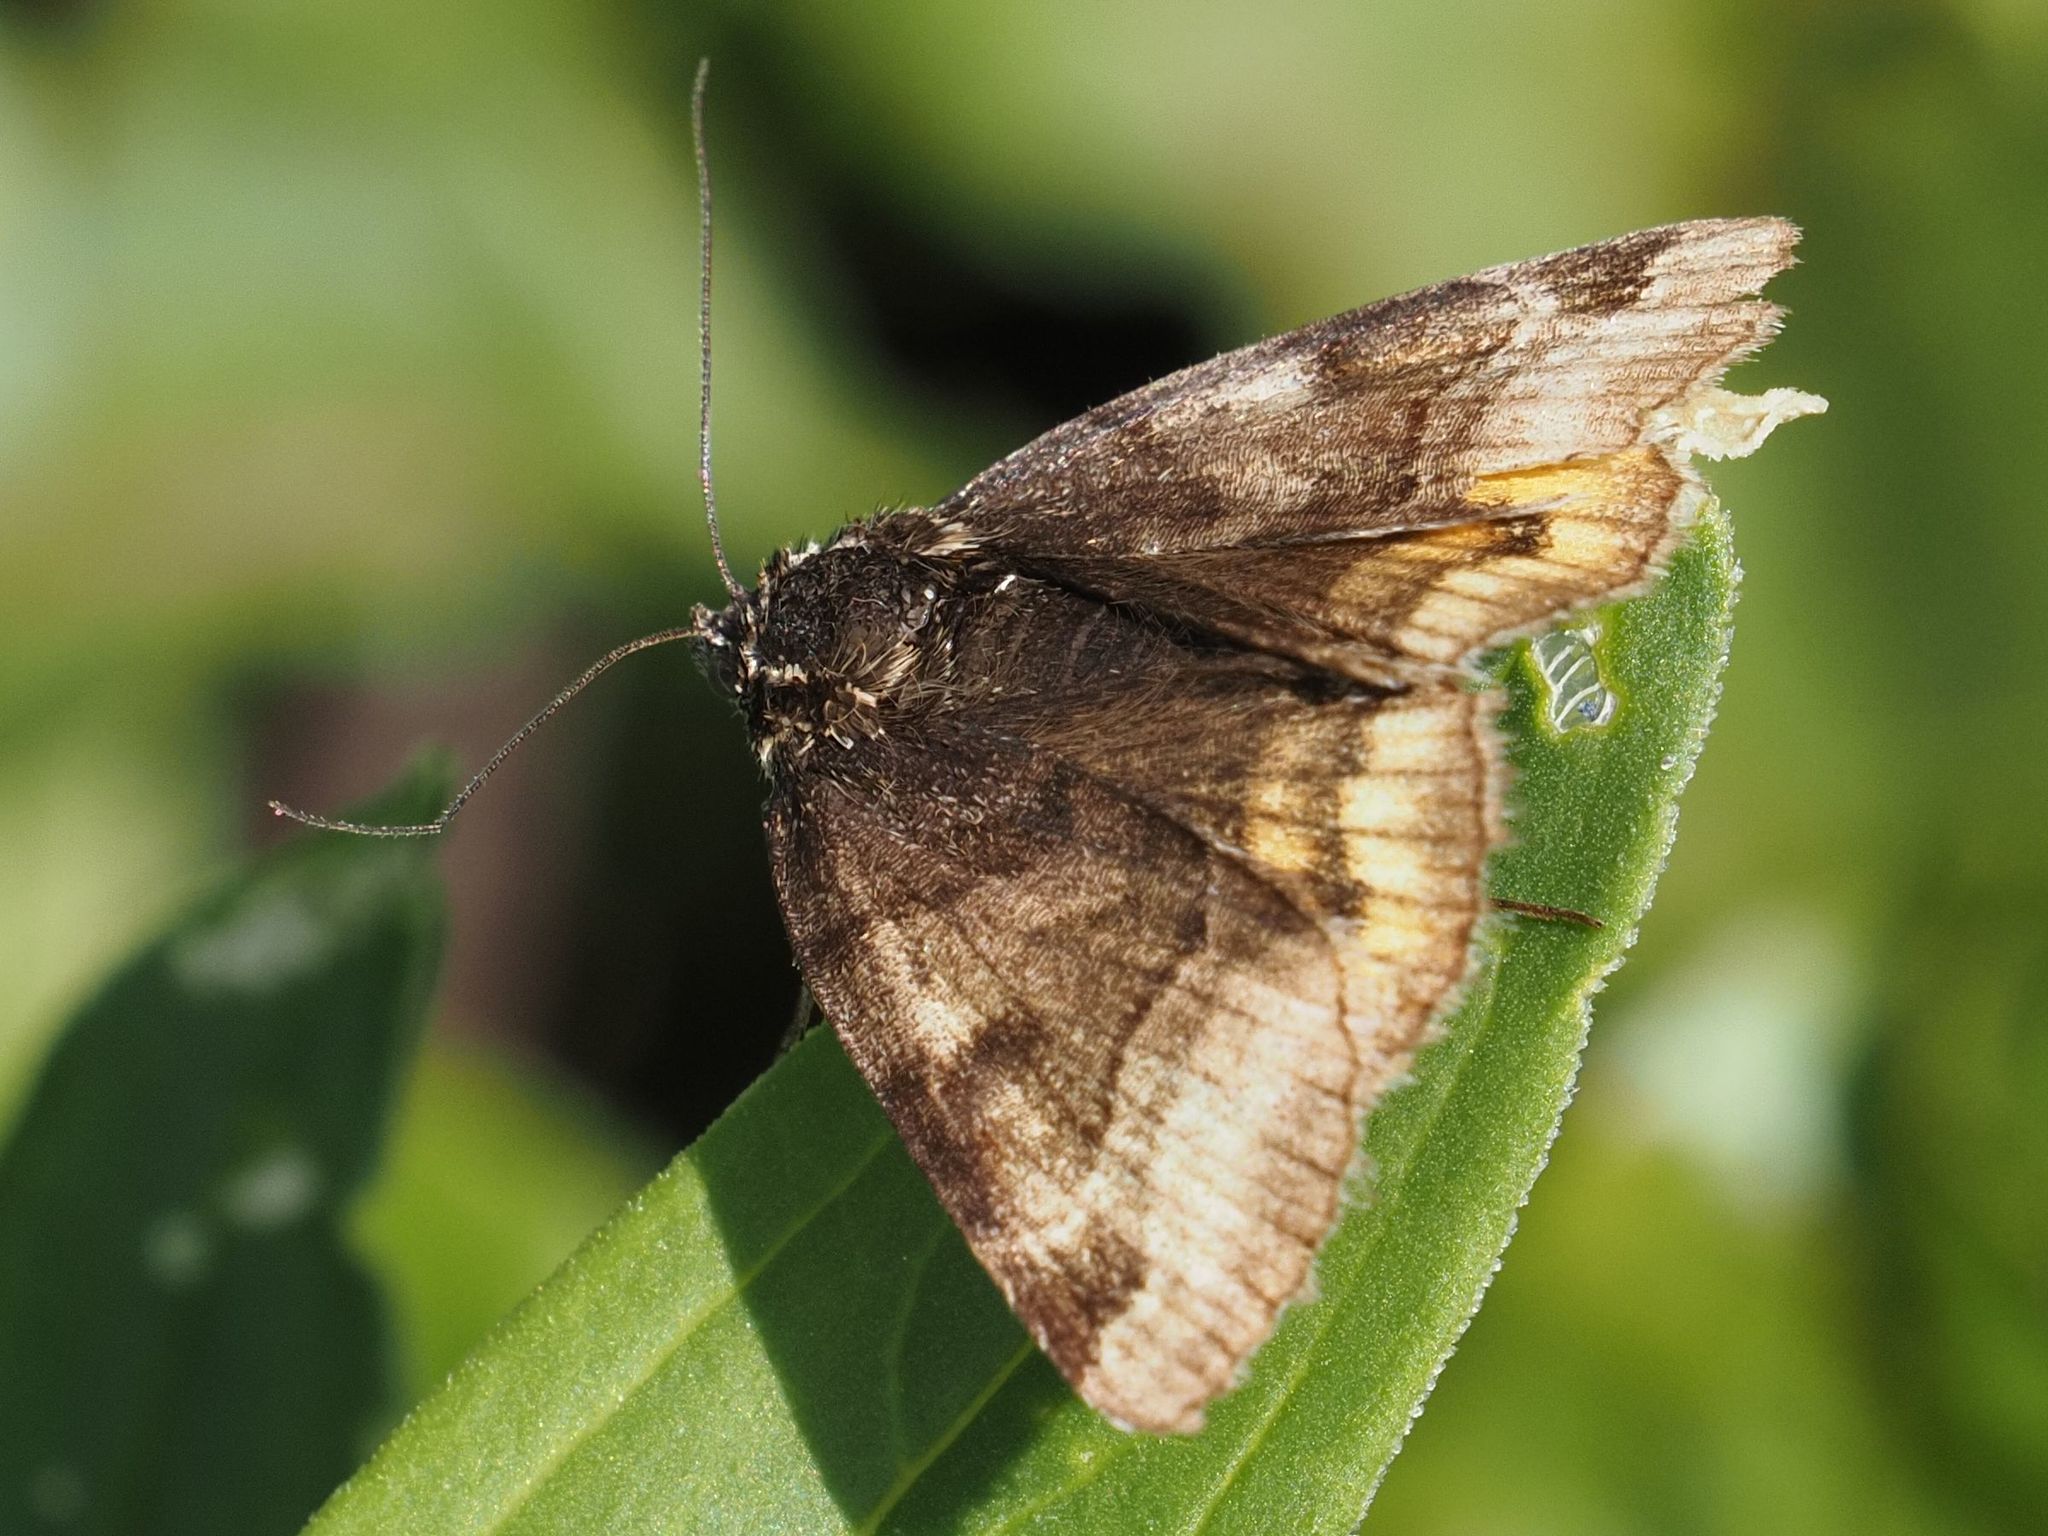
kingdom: Animalia
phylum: Arthropoda
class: Insecta
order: Lepidoptera
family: Erebidae
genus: Euclidia
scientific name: Euclidia glyphica
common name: Burnet companion
